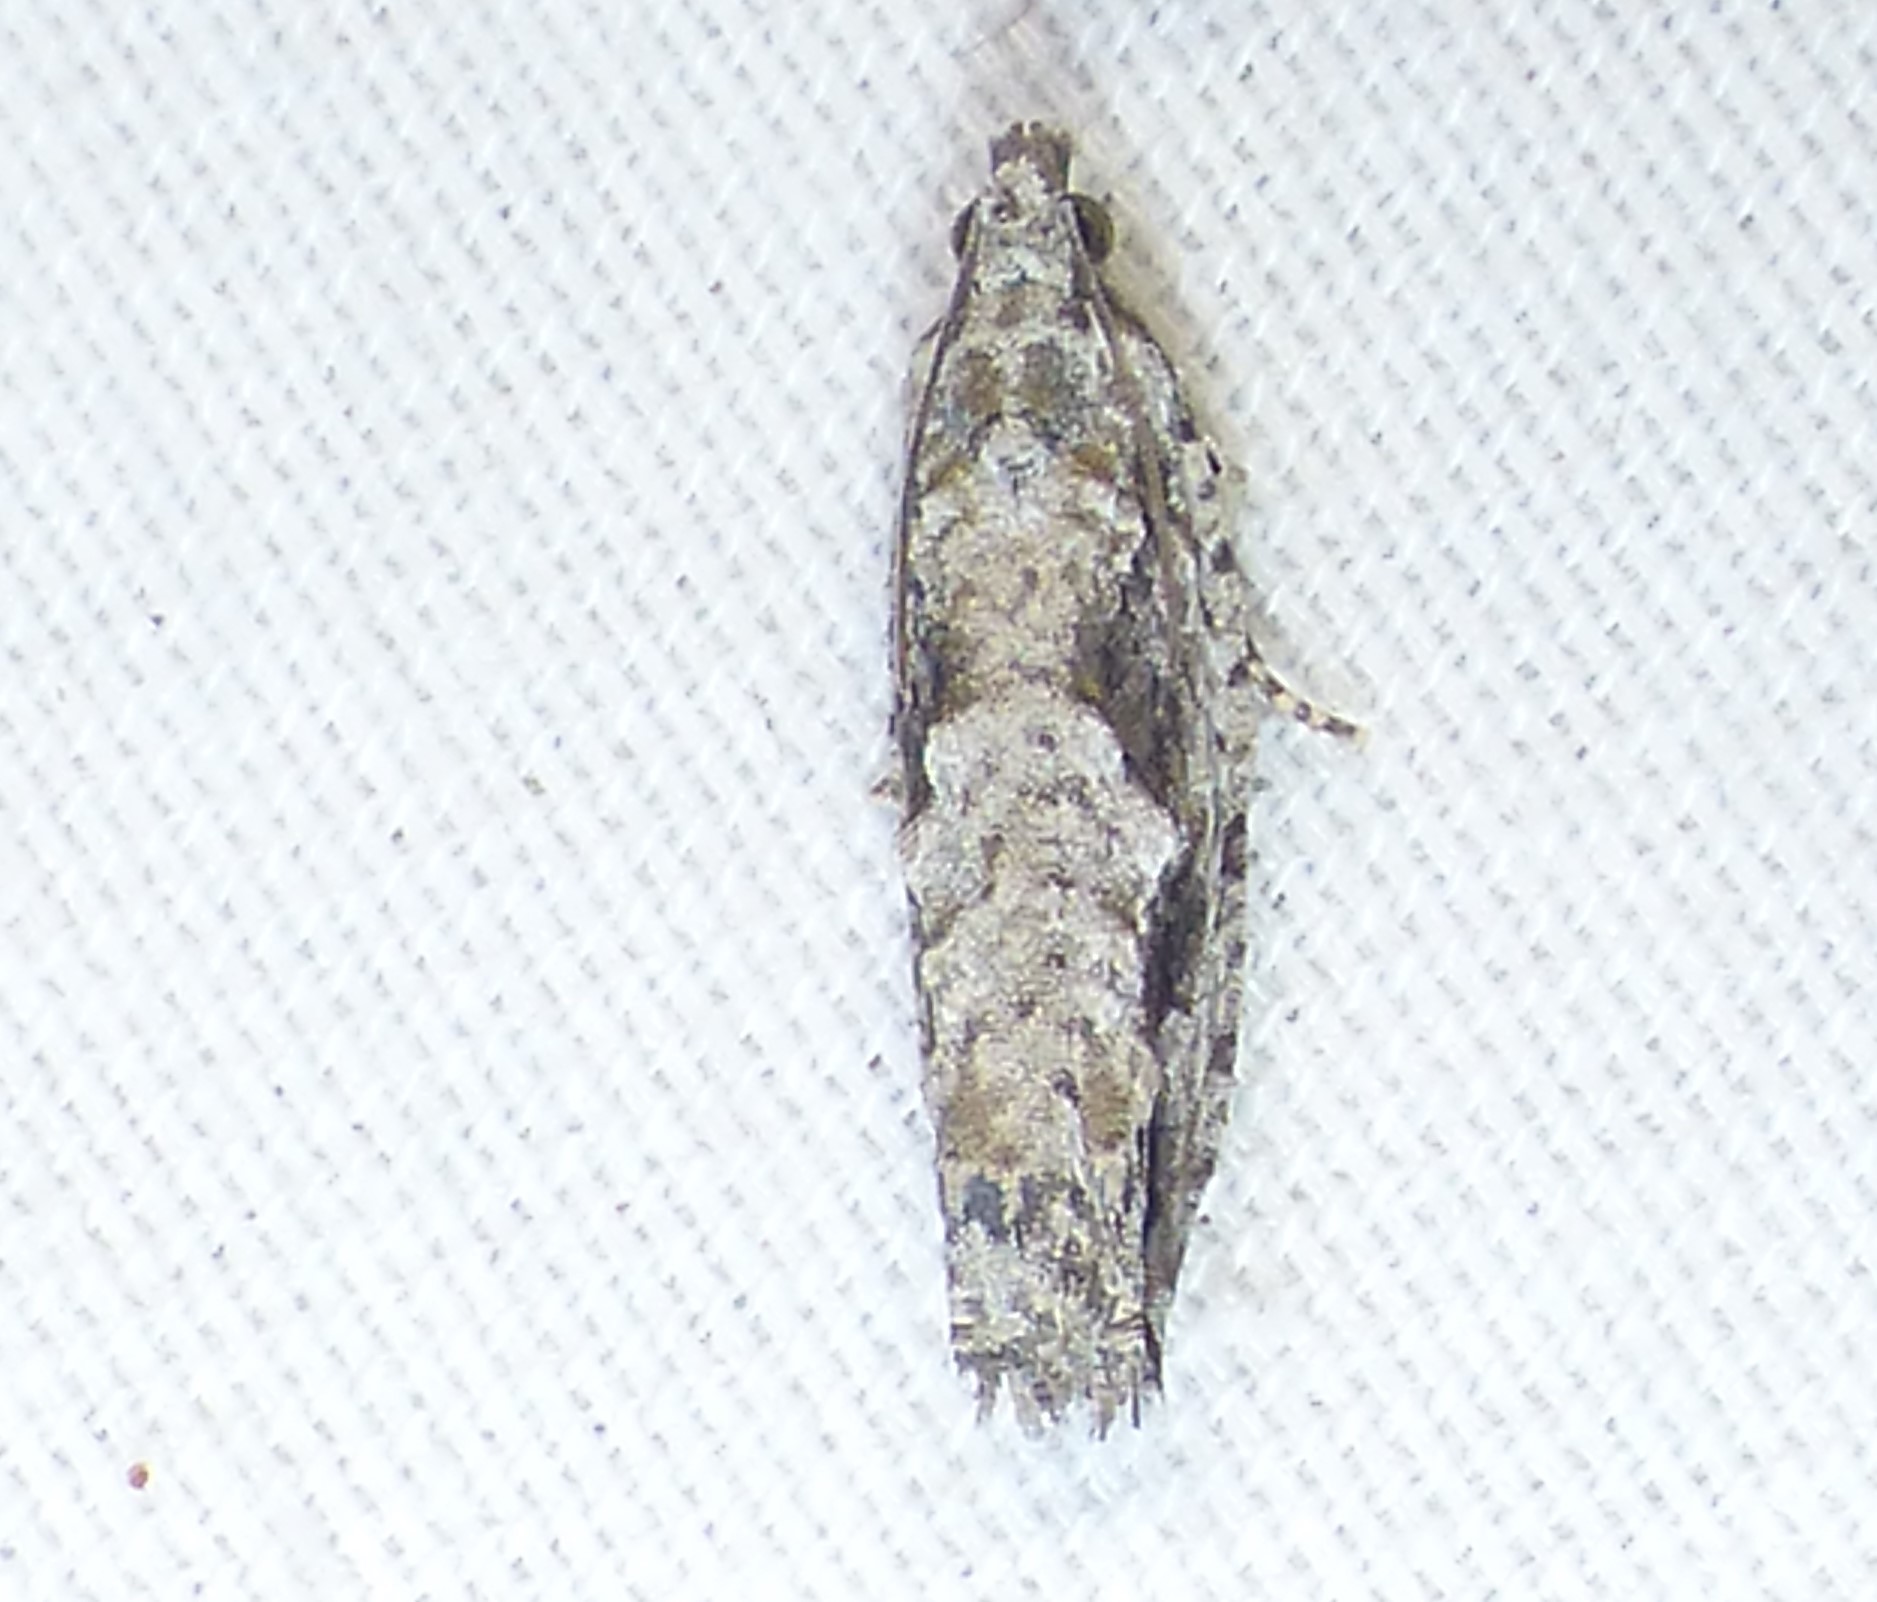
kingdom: Animalia
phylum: Arthropoda
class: Insecta
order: Lepidoptera
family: Tortricidae
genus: Gretchena
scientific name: Gretchena bolliana
